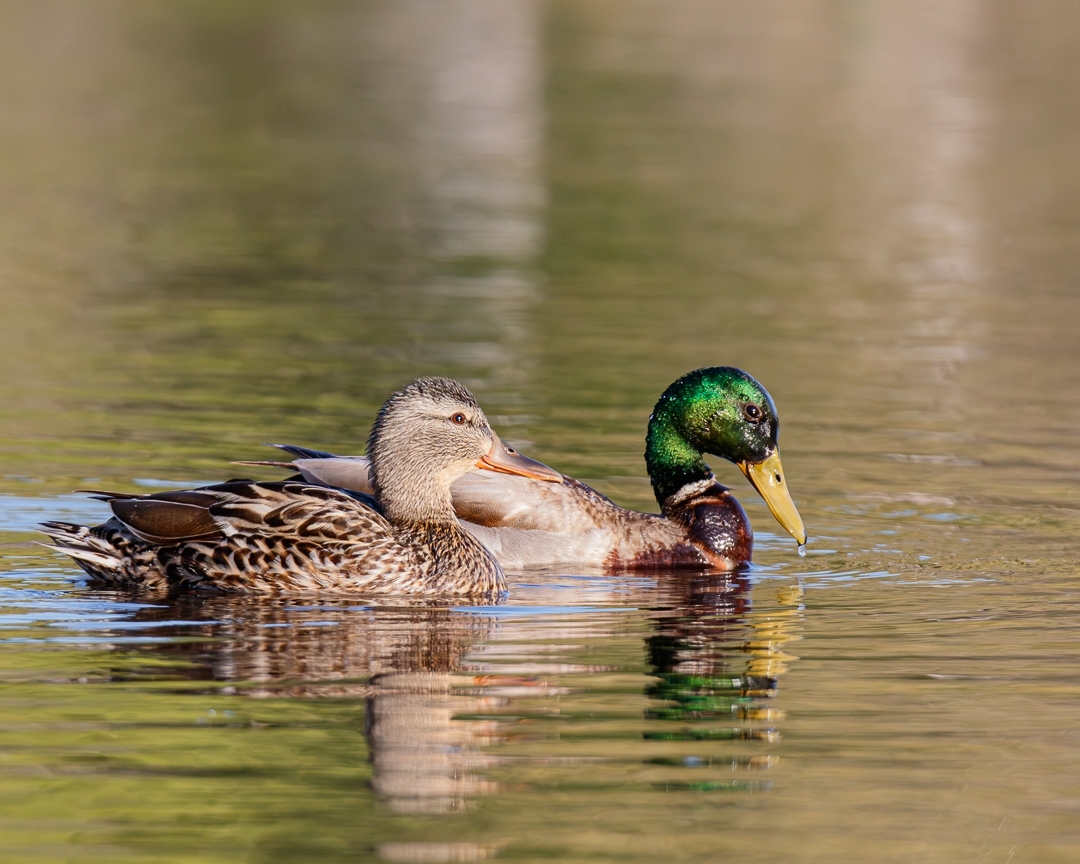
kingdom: Animalia
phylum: Chordata
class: Aves
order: Anseriformes
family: Anatidae
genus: Anas
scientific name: Anas platyrhynchos
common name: Mallard
